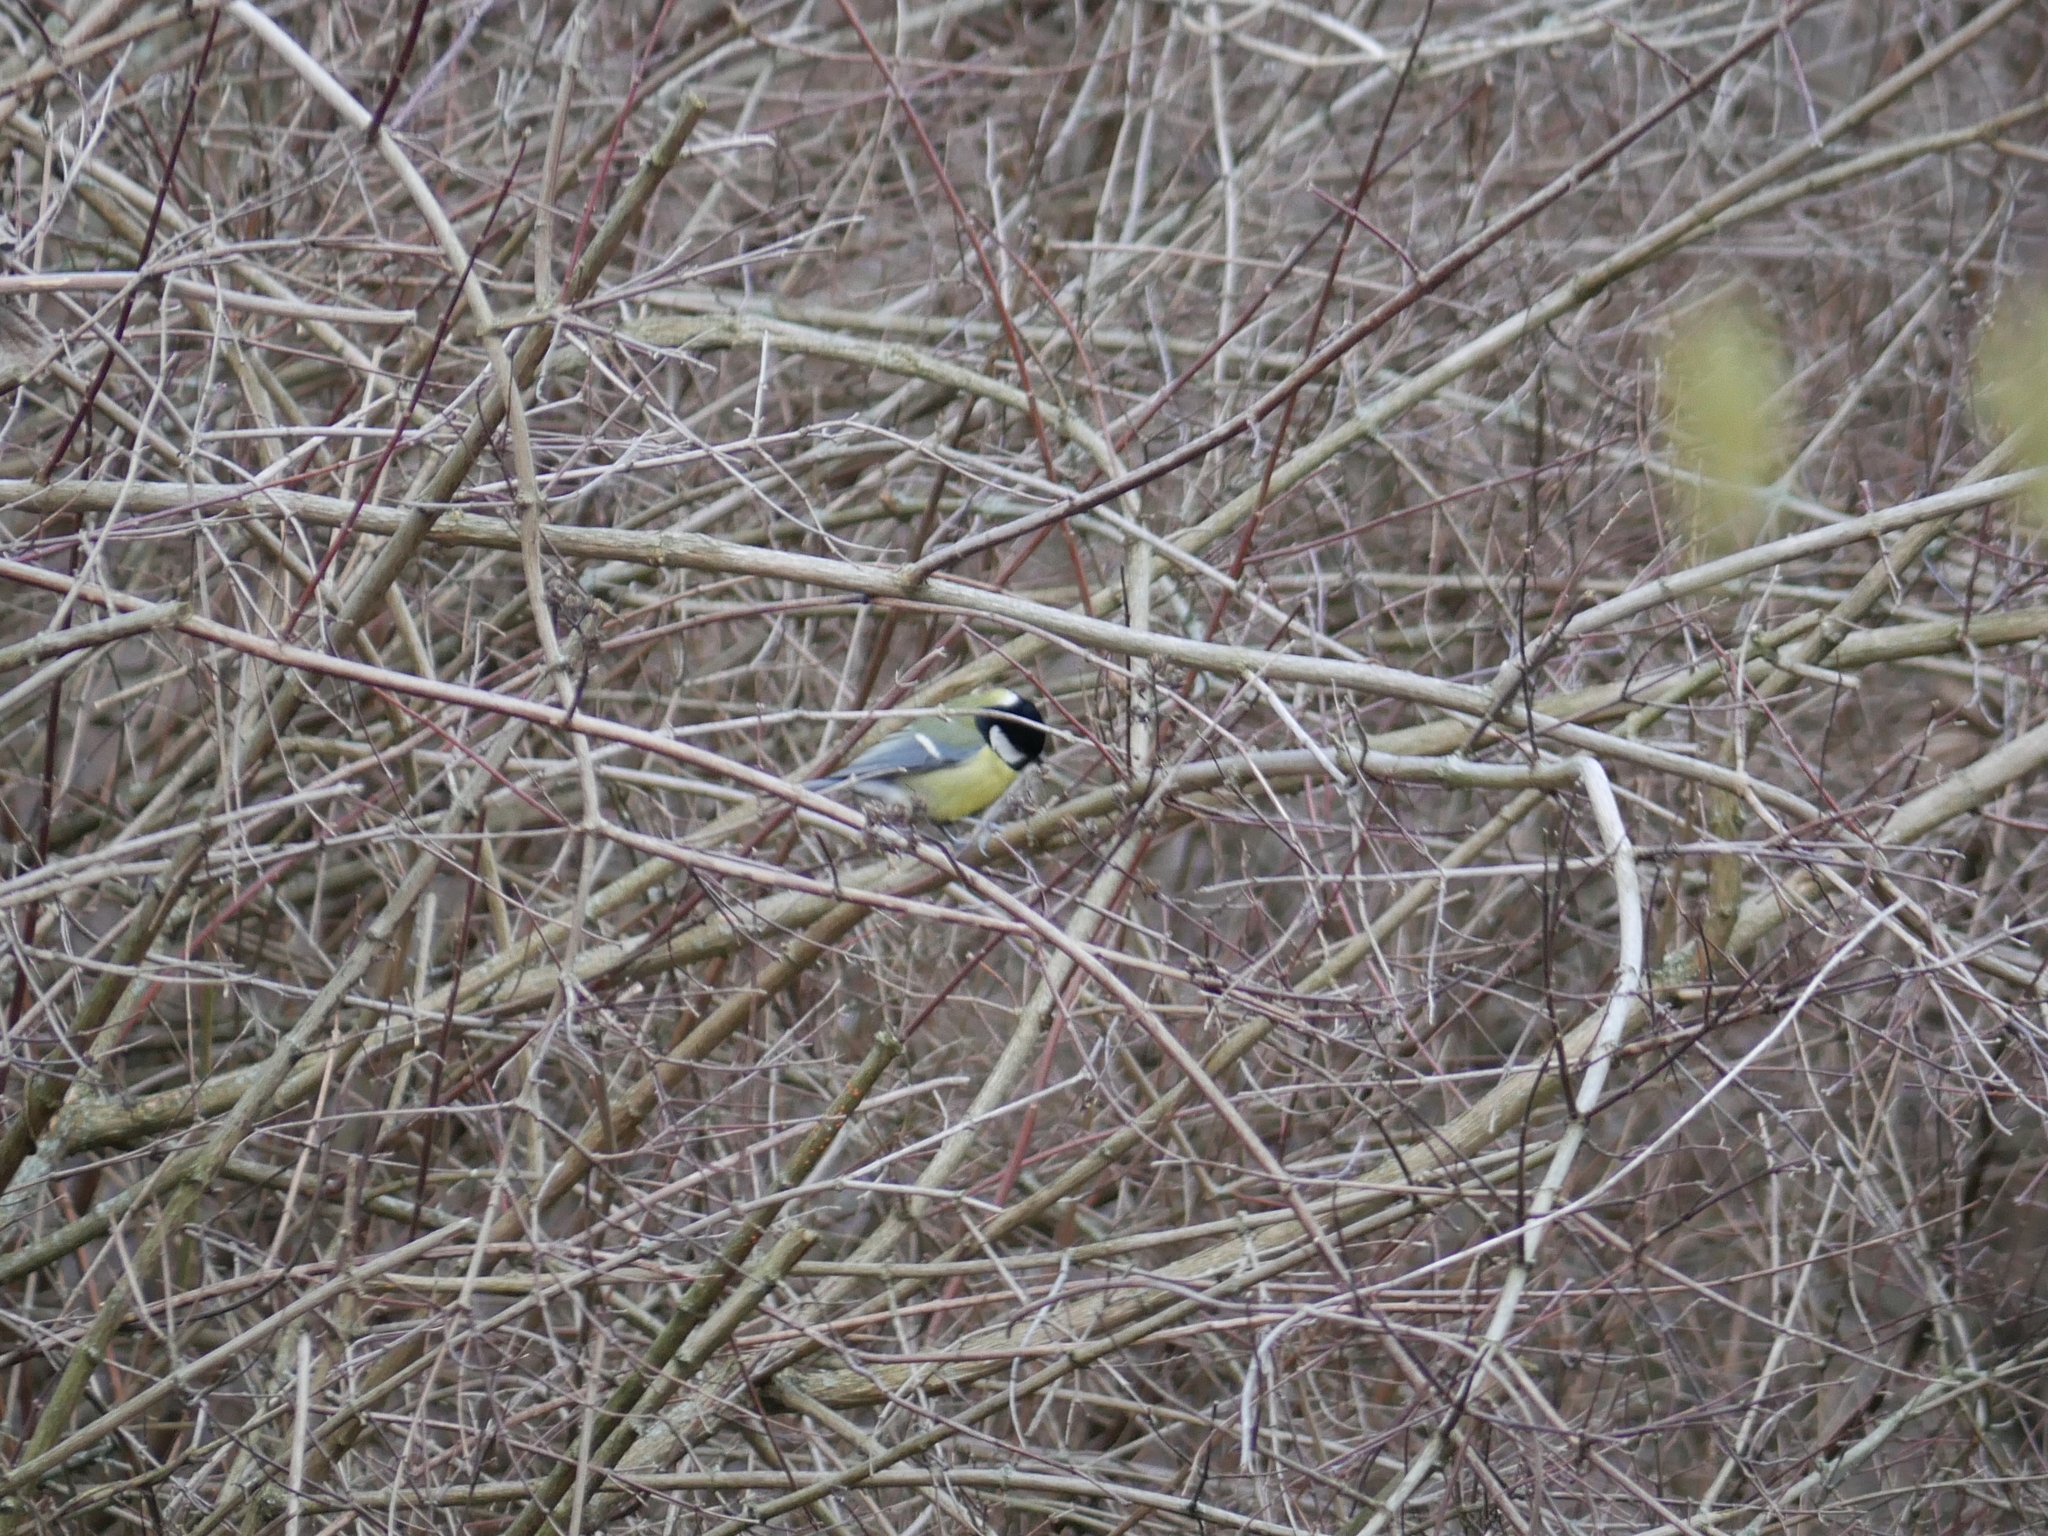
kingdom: Animalia
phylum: Chordata
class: Aves
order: Passeriformes
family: Paridae
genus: Parus
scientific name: Parus major
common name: Great tit
